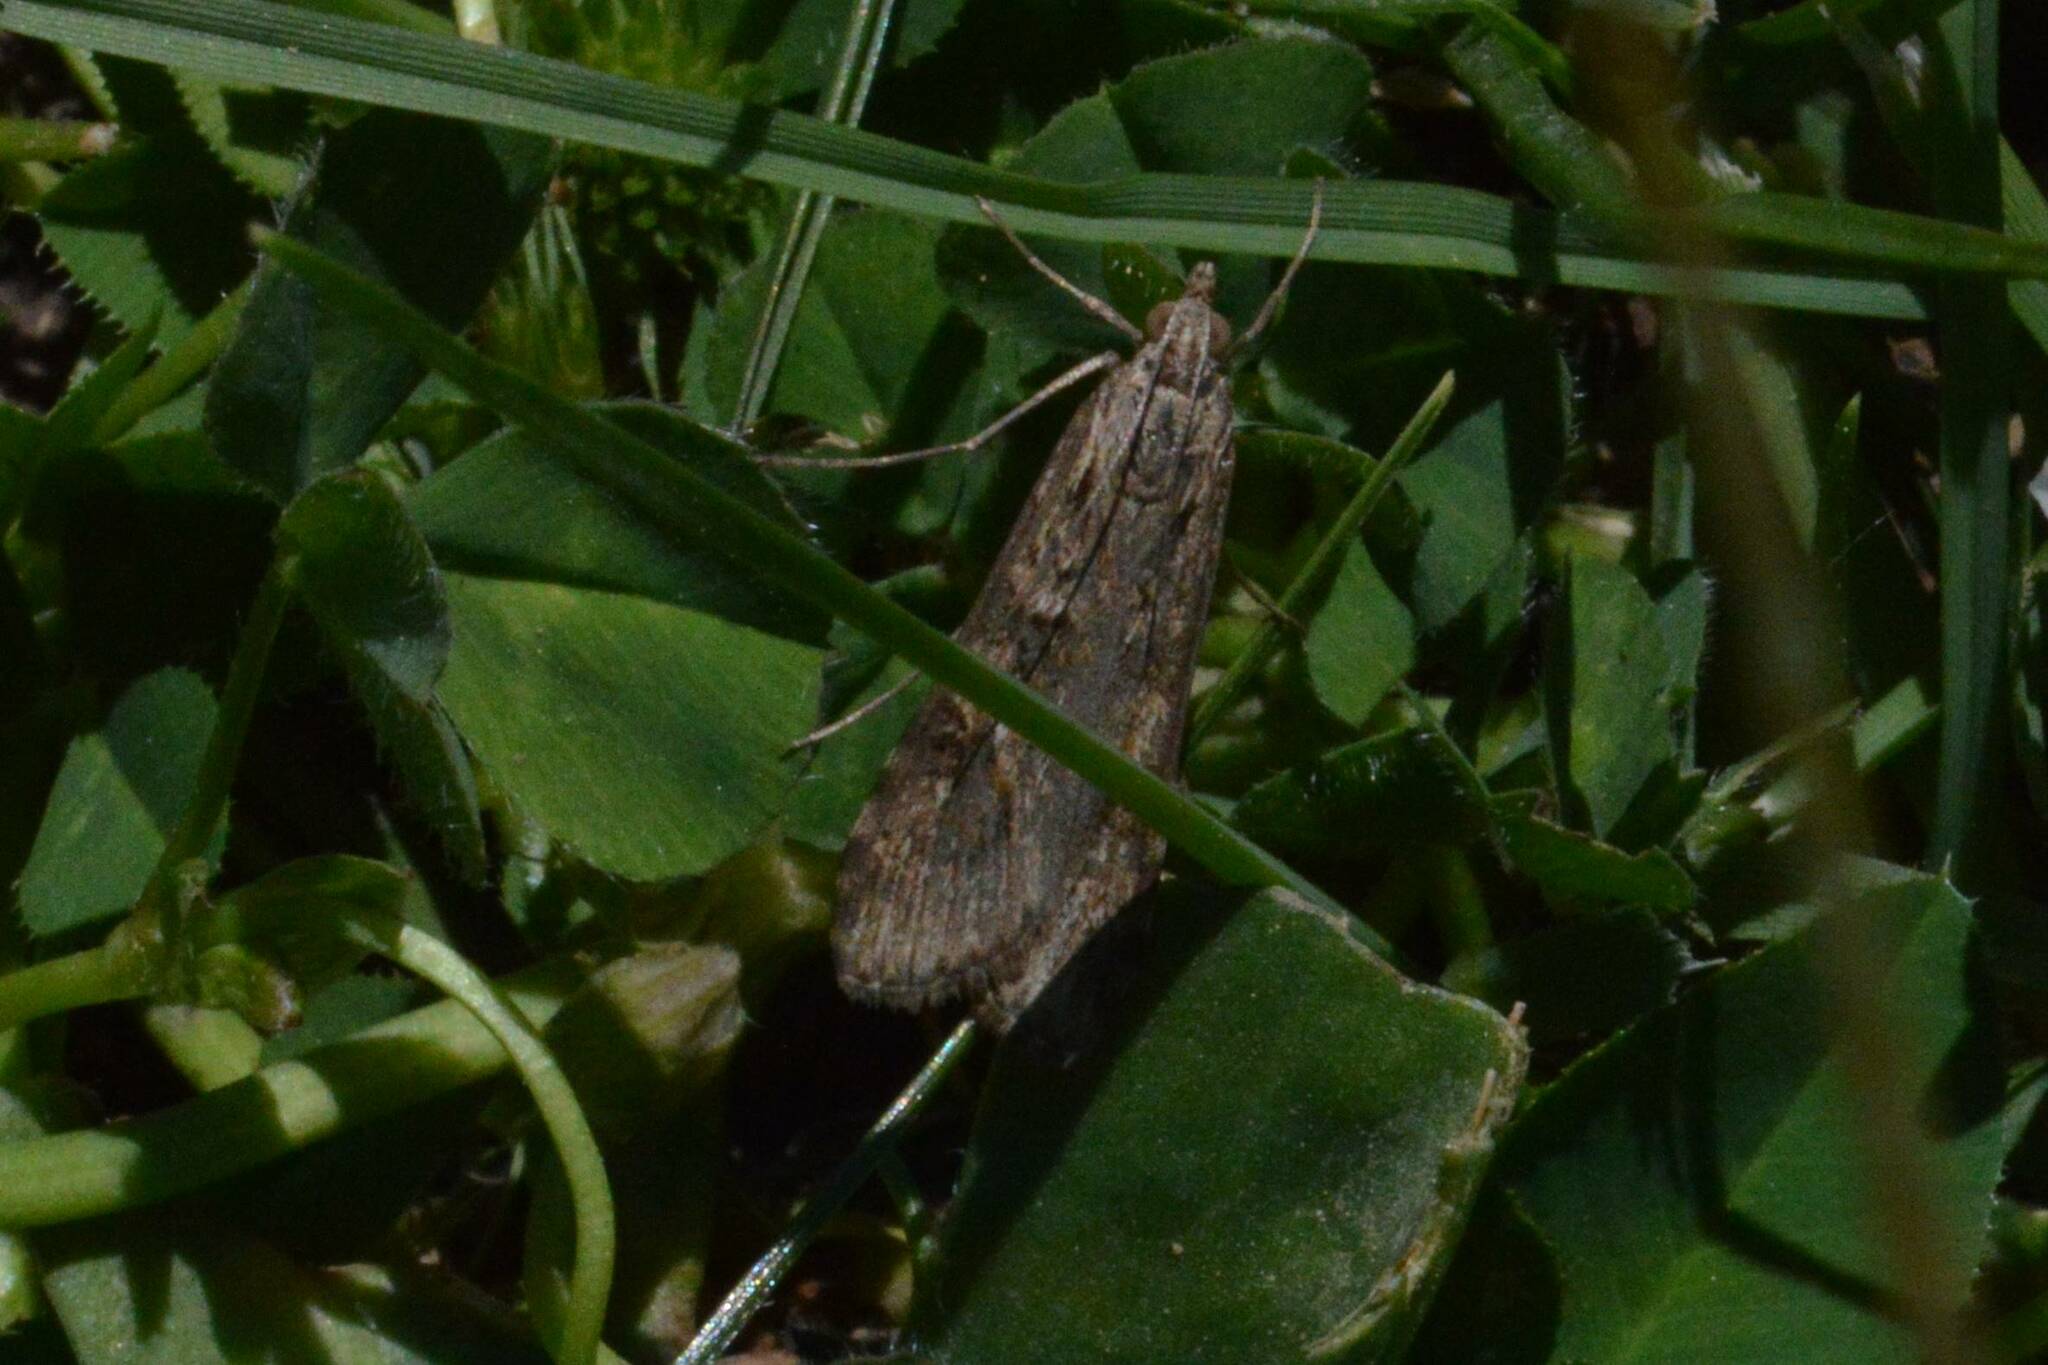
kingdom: Animalia
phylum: Arthropoda
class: Insecta
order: Lepidoptera
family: Crambidae
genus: Nomophila
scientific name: Nomophila noctuella
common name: Rush veneer
